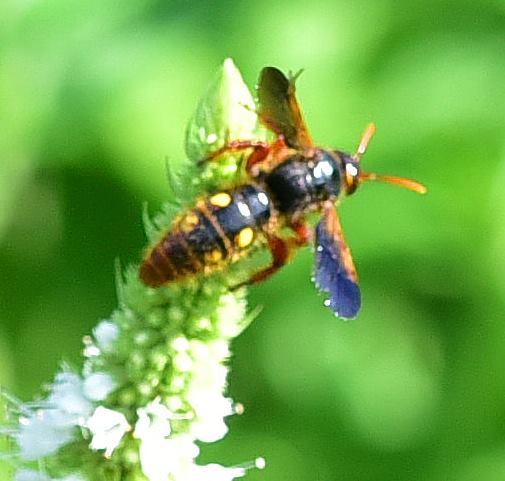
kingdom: Animalia
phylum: Arthropoda
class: Insecta
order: Hymenoptera
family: Scoliidae
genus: Scolia
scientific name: Scolia
